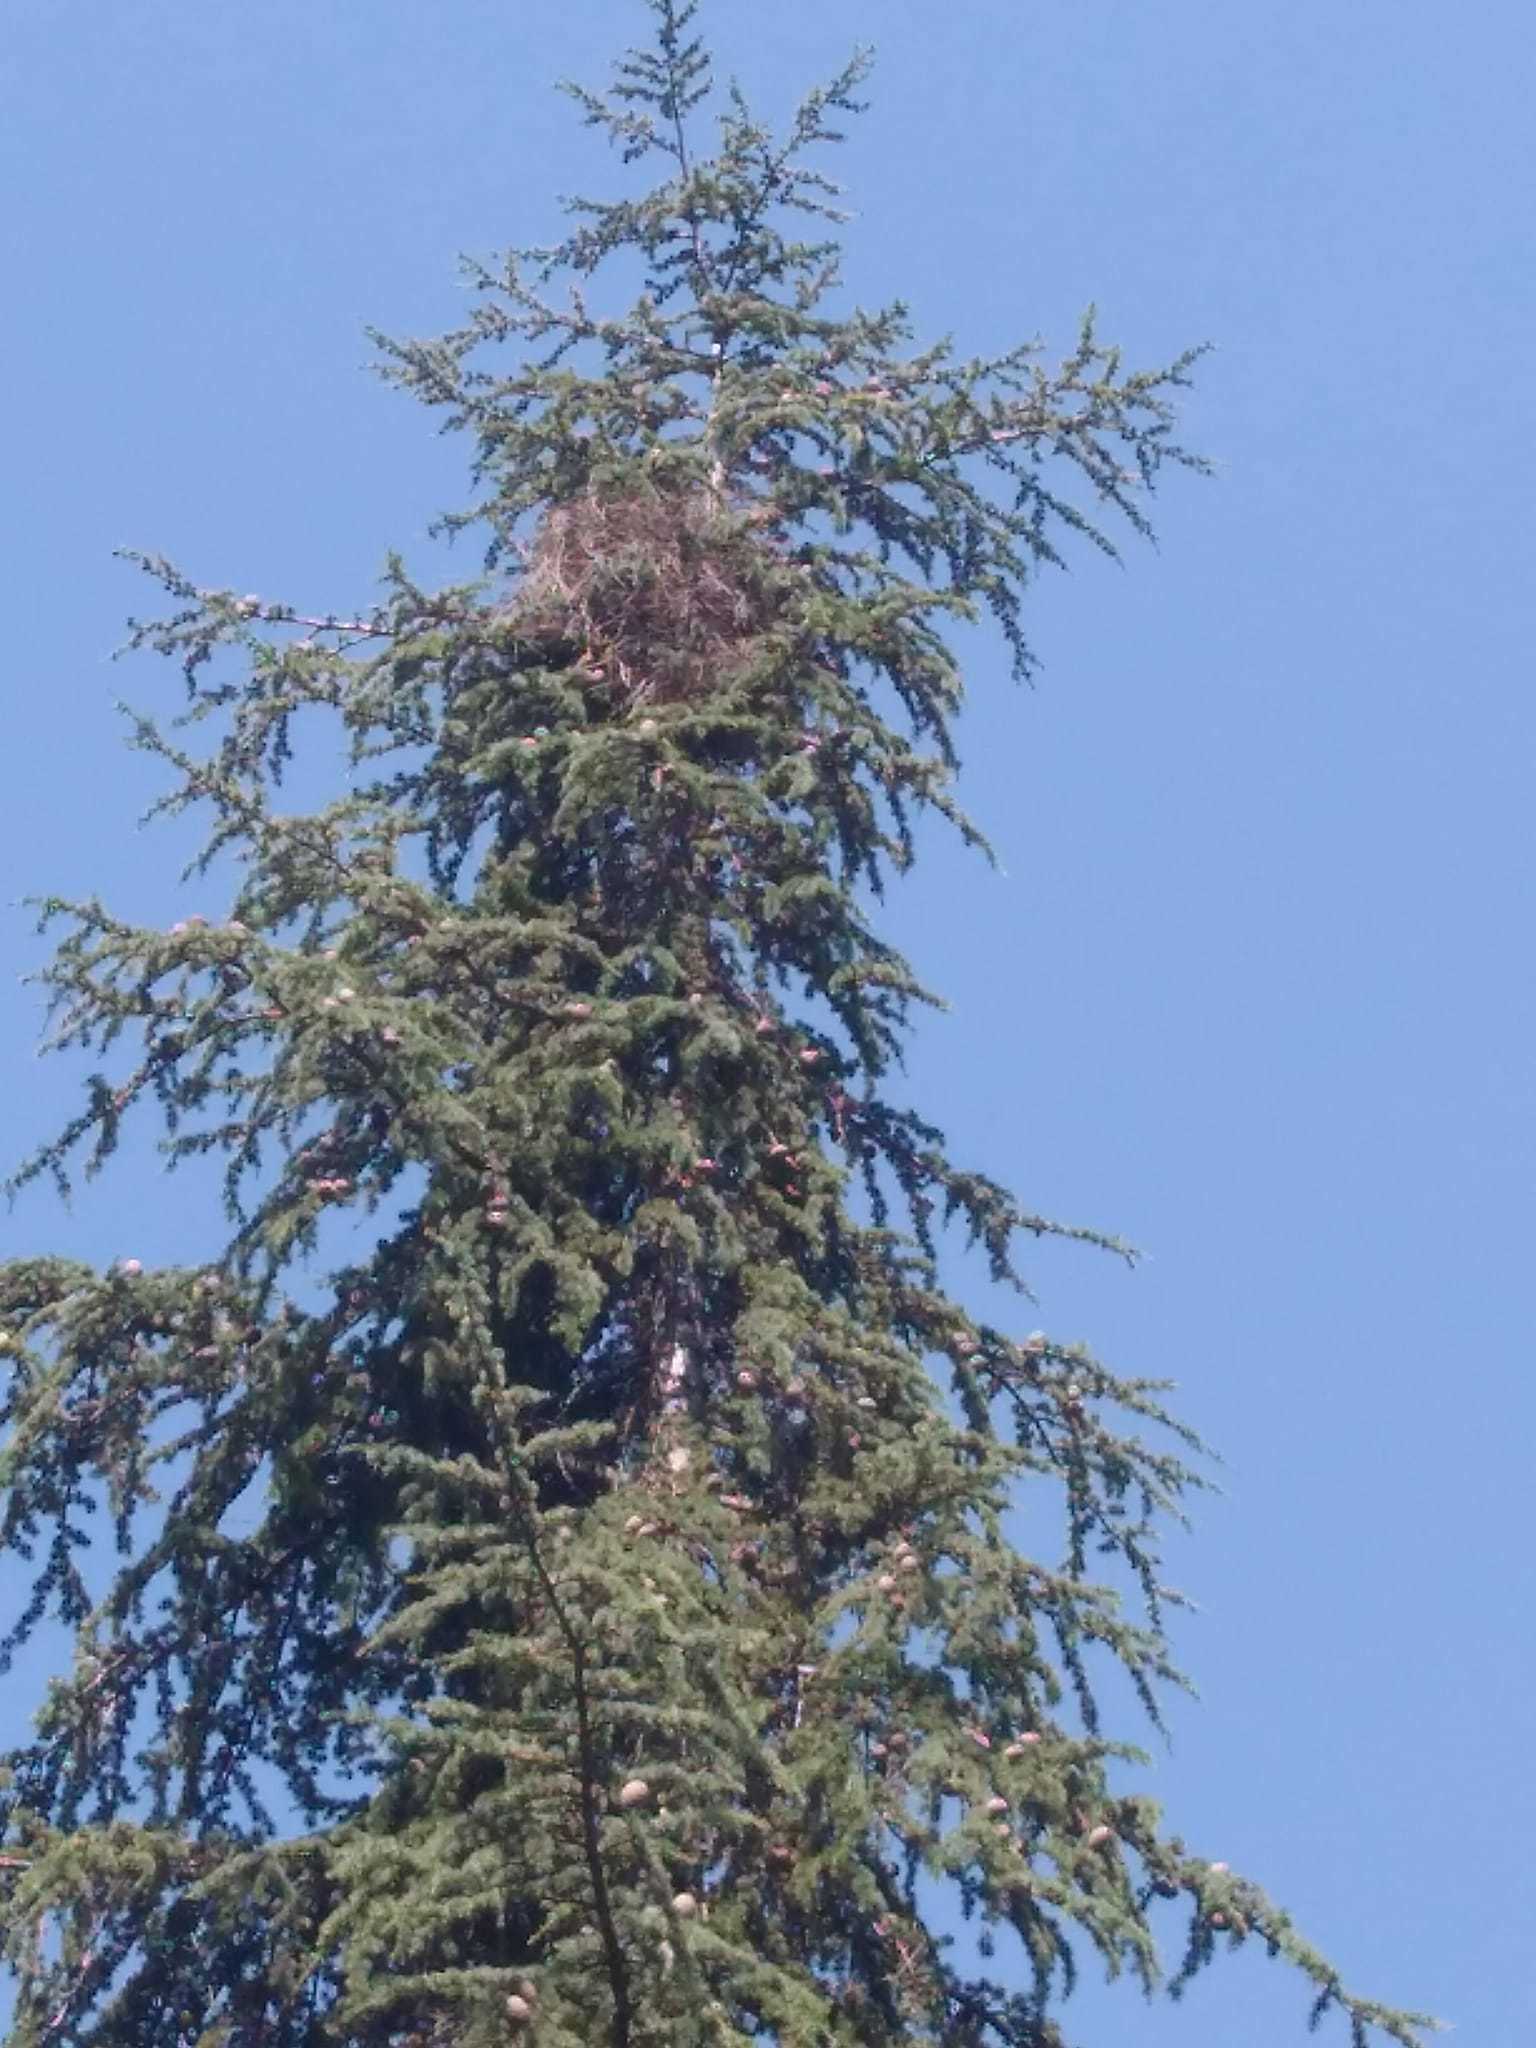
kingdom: Animalia
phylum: Chordata
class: Aves
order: Psittaciformes
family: Psittacidae
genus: Myiopsitta
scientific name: Myiopsitta monachus
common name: Monk parakeet
